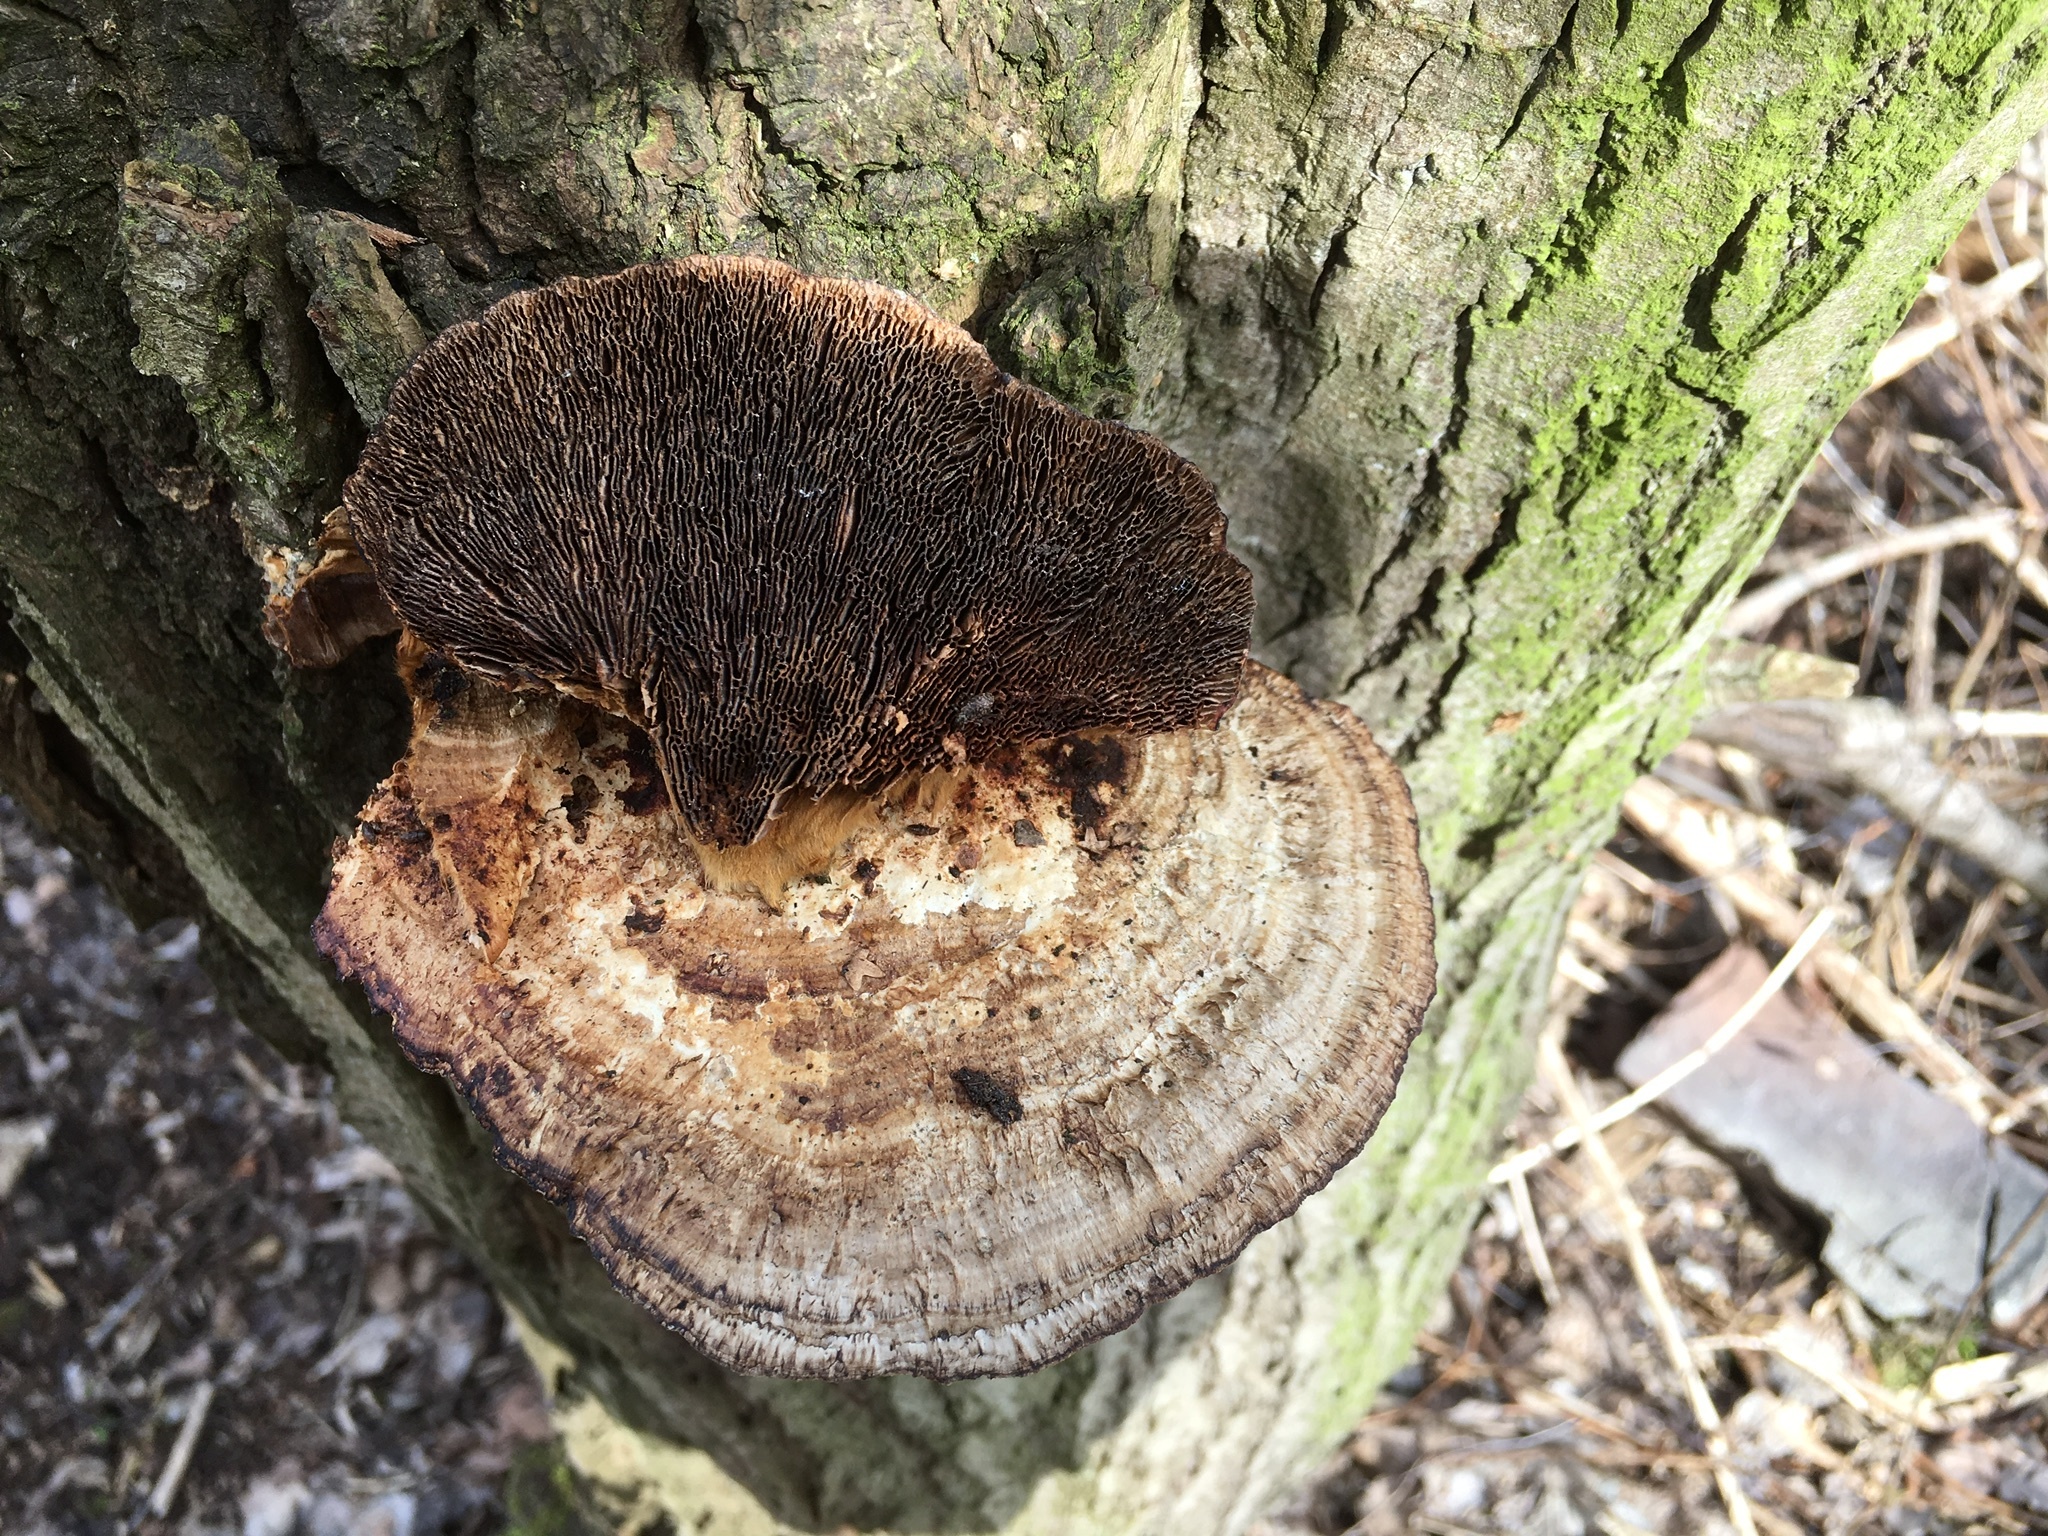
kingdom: Fungi
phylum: Basidiomycota
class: Agaricomycetes
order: Polyporales
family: Polyporaceae
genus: Daedaleopsis
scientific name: Daedaleopsis confragosa
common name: Blushing bracket
